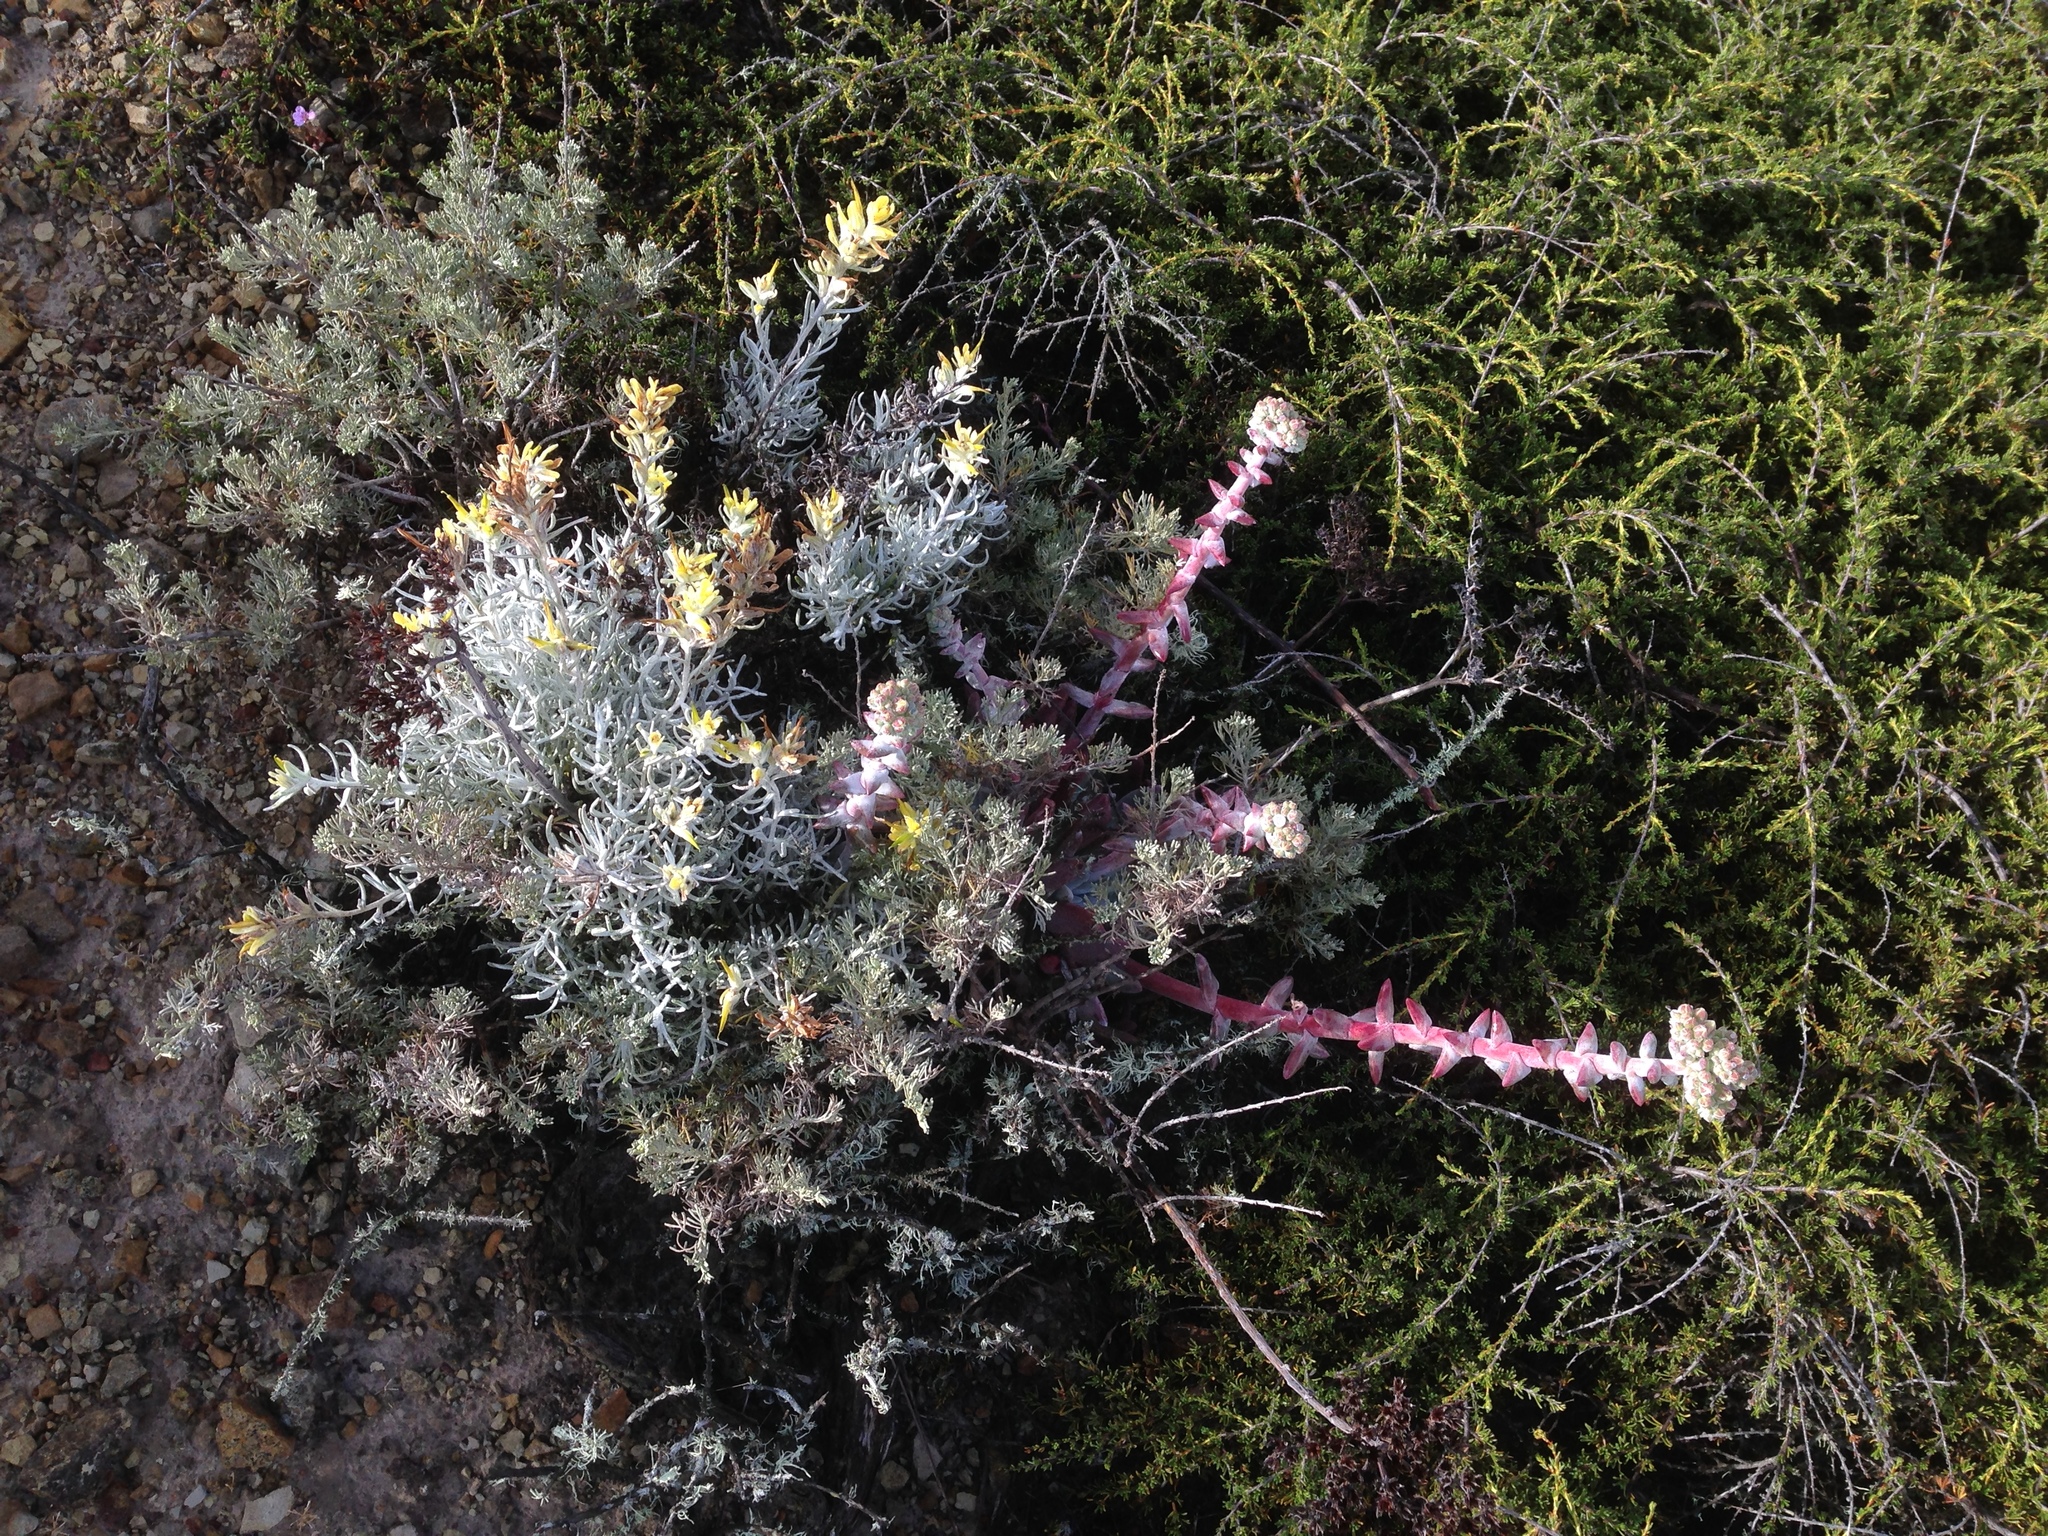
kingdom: Plantae
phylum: Tracheophyta
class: Magnoliopsida
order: Lamiales
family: Orobanchaceae
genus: Castilleja
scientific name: Castilleja hololeuca
